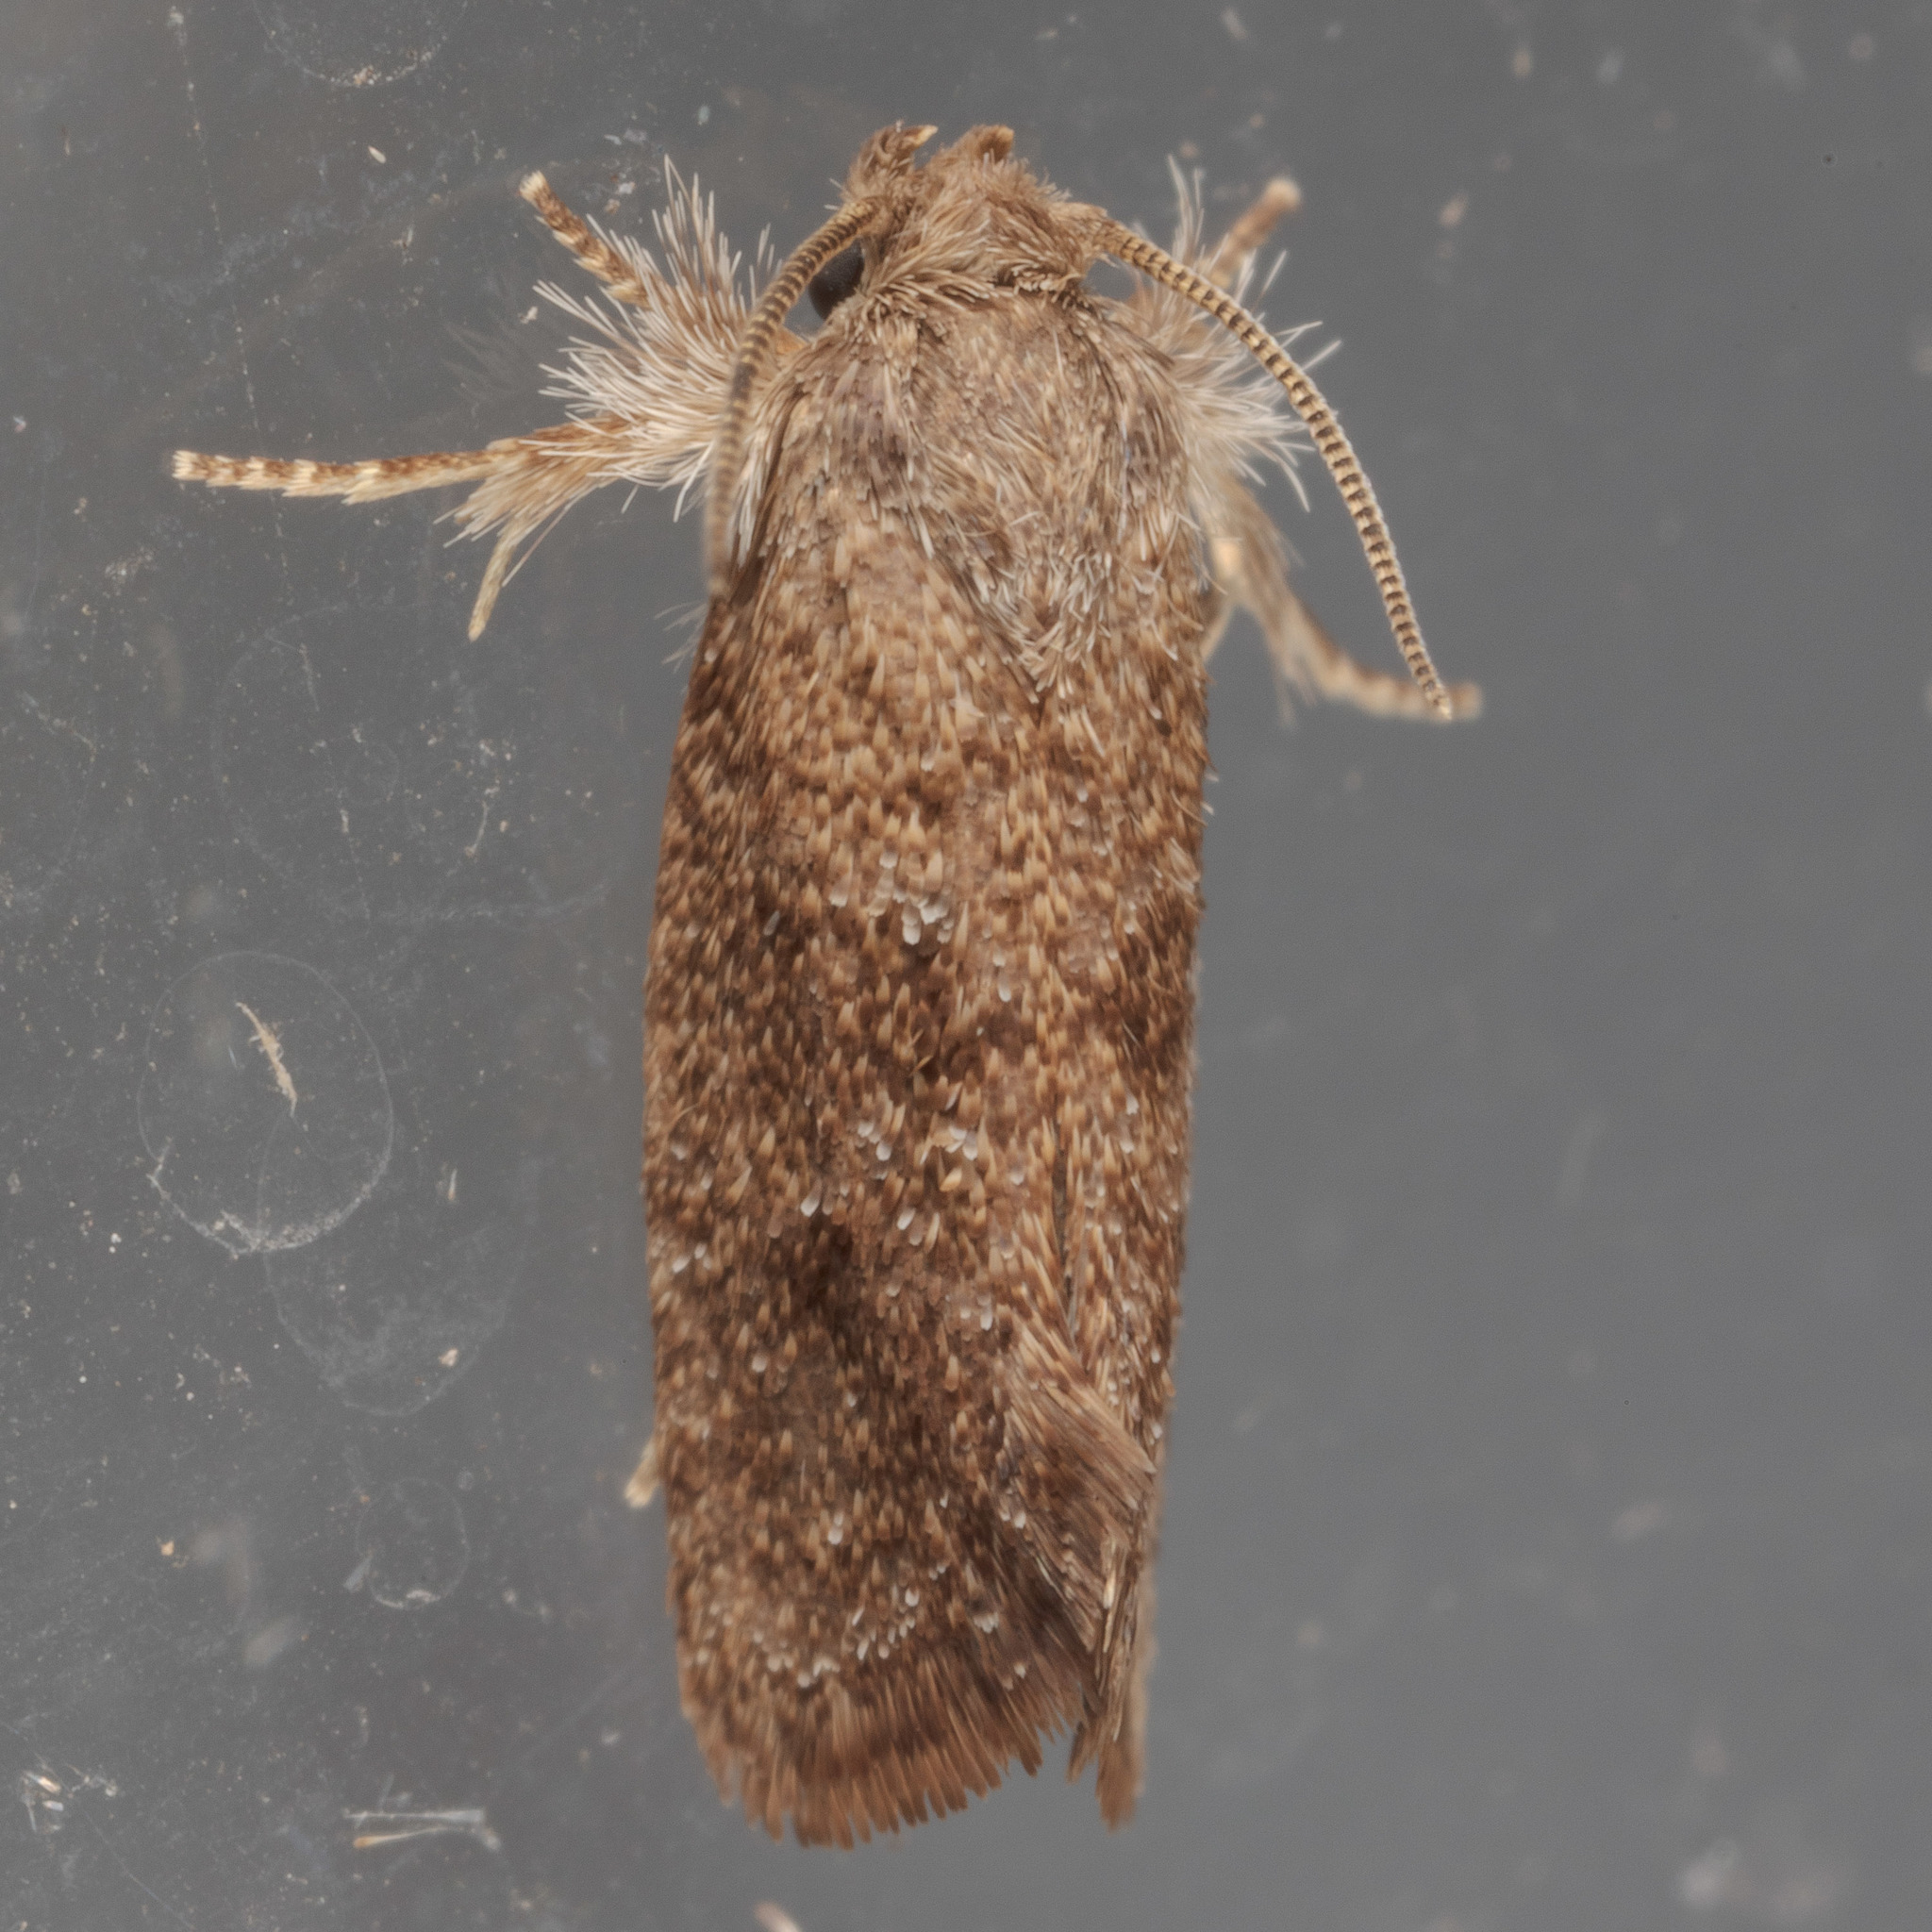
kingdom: Animalia
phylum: Arthropoda
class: Insecta
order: Lepidoptera
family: Tineidae
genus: Acrolophus
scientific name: Acrolophus heppneri
